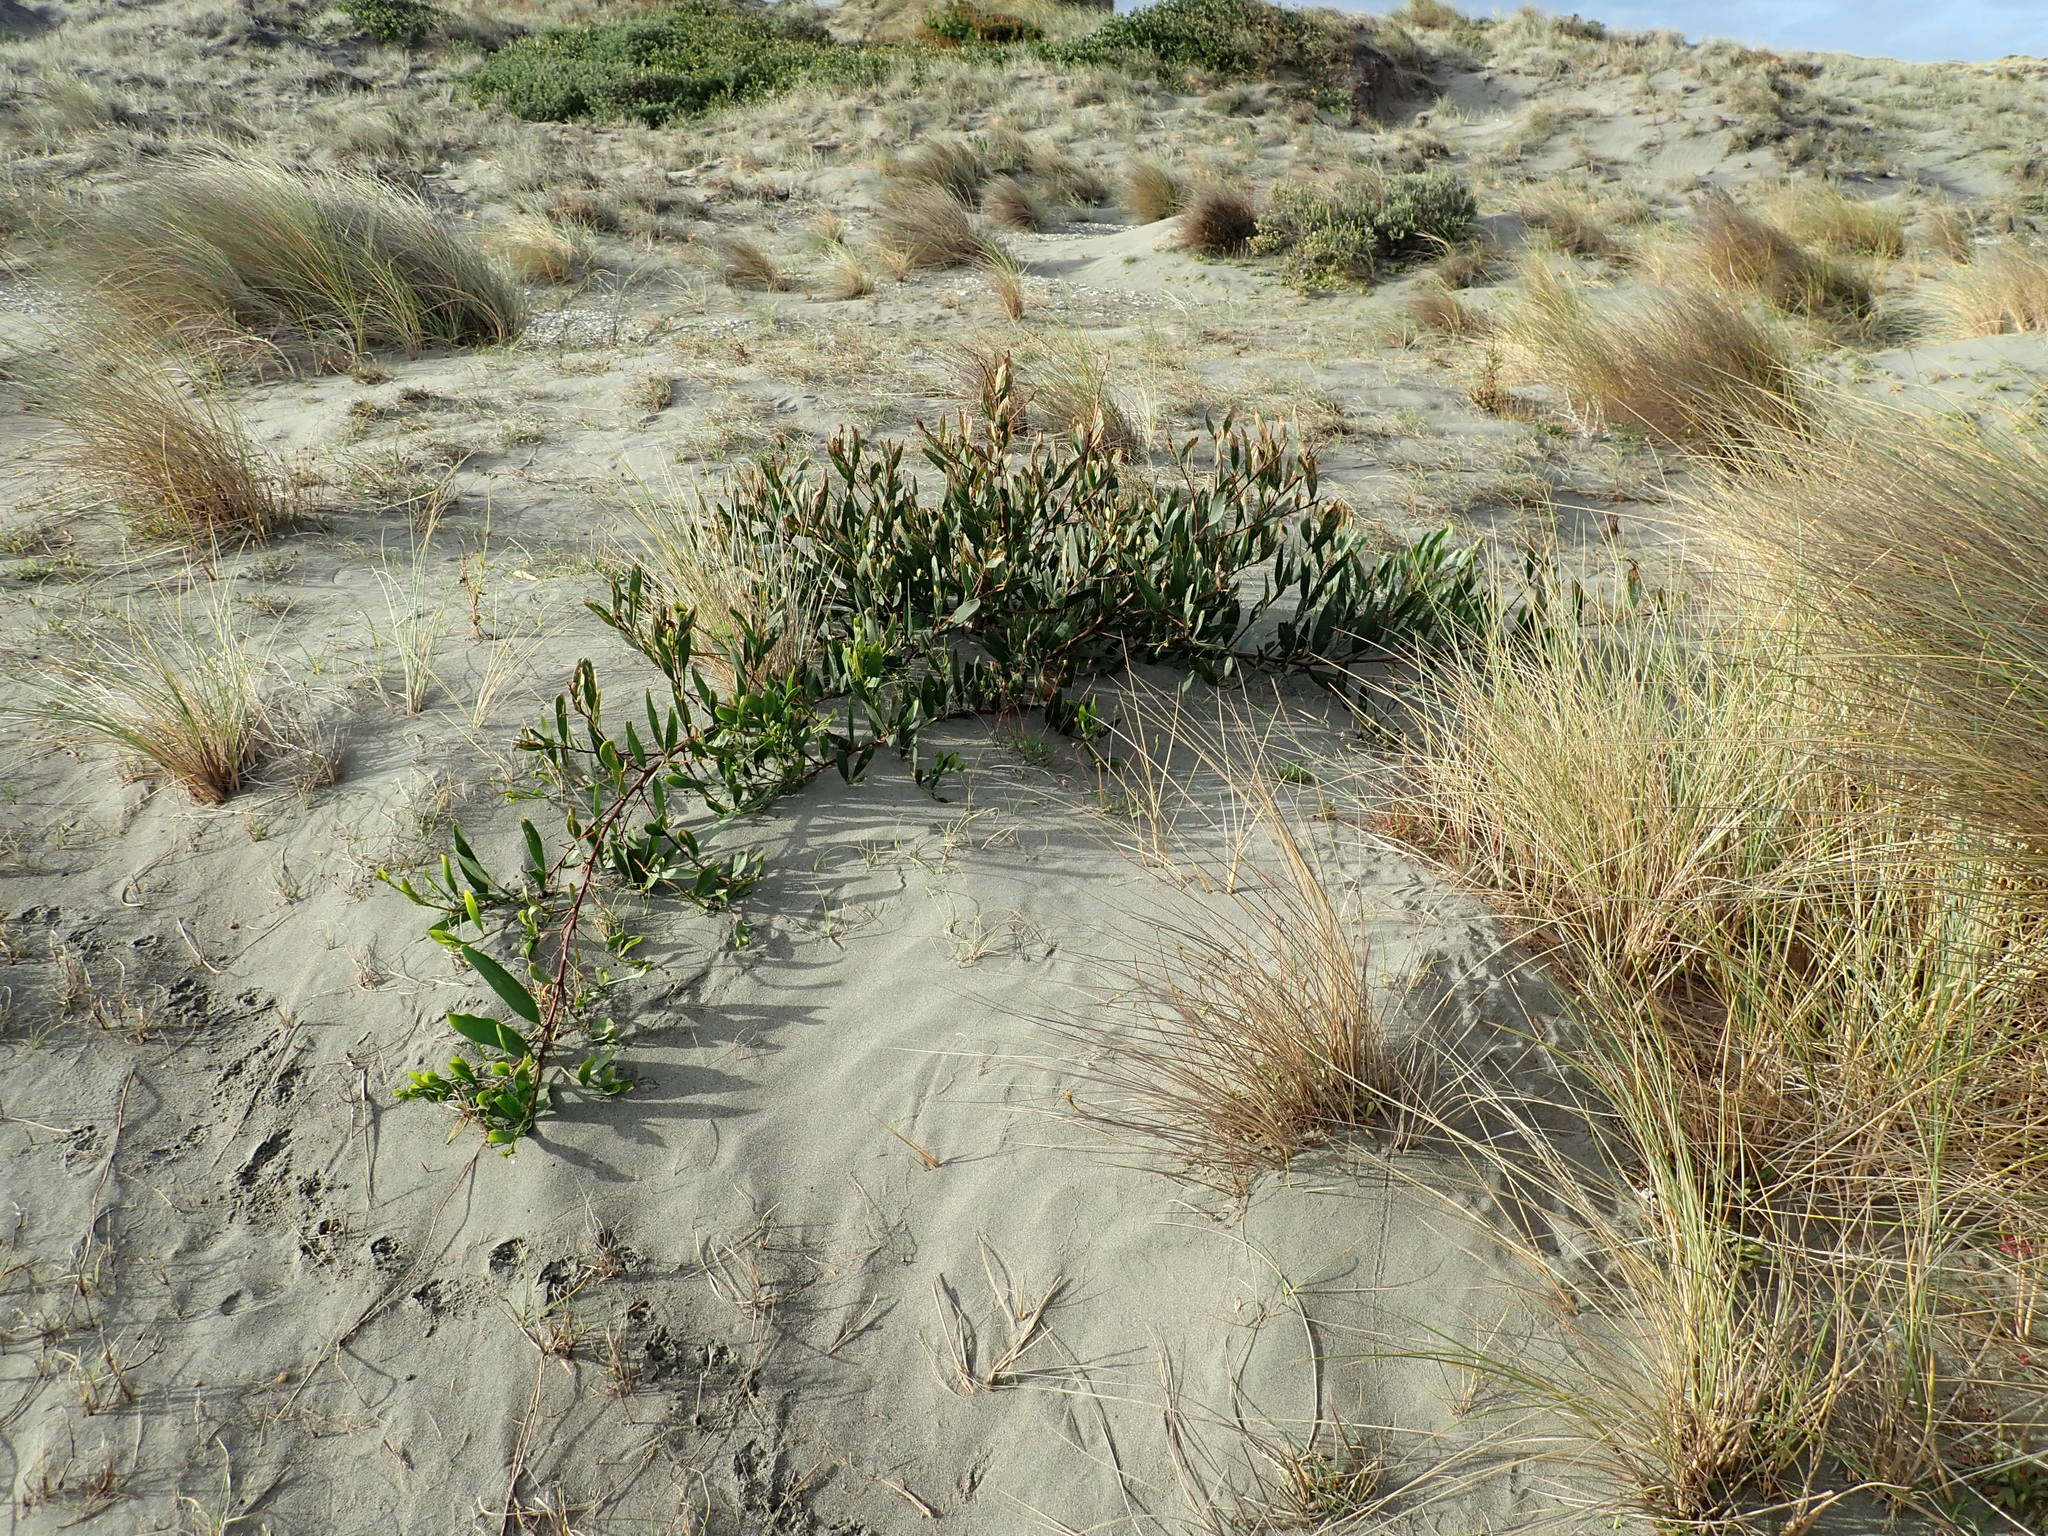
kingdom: Plantae
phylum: Tracheophyta
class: Magnoliopsida
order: Fabales
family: Fabaceae
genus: Acacia
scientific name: Acacia longifolia
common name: Sydney golden wattle
